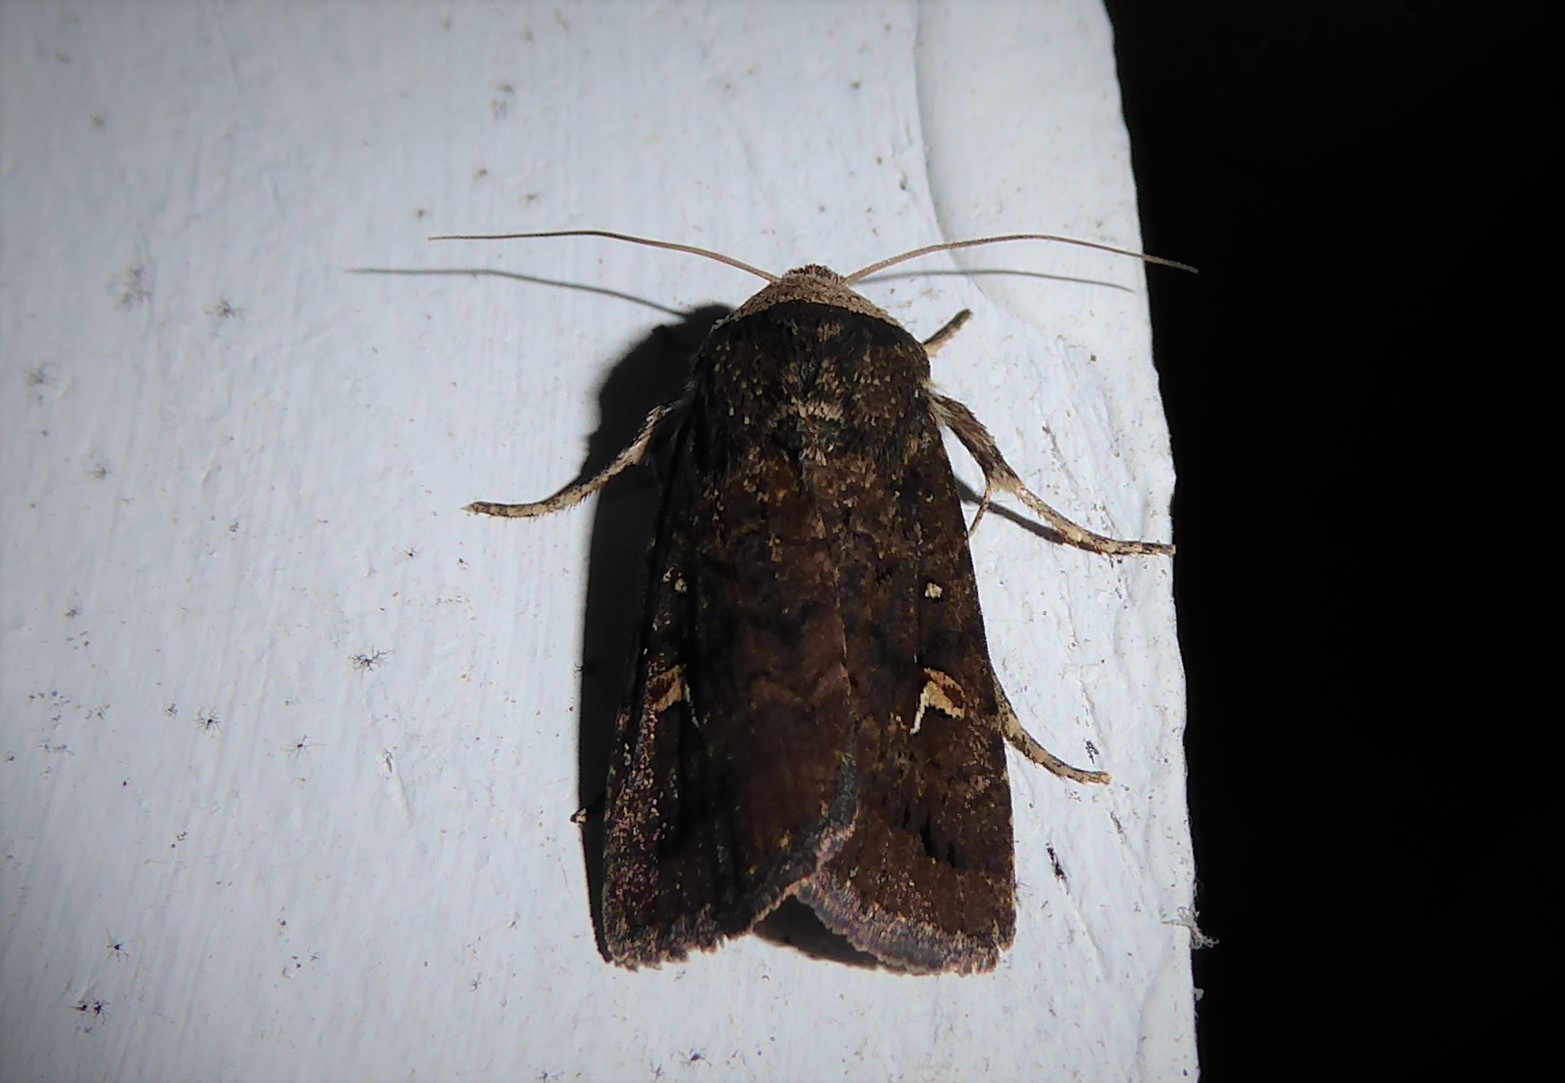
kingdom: Animalia
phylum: Arthropoda
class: Insecta
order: Lepidoptera
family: Noctuidae
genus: Proteuxoa
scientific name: Proteuxoa tetronycha
